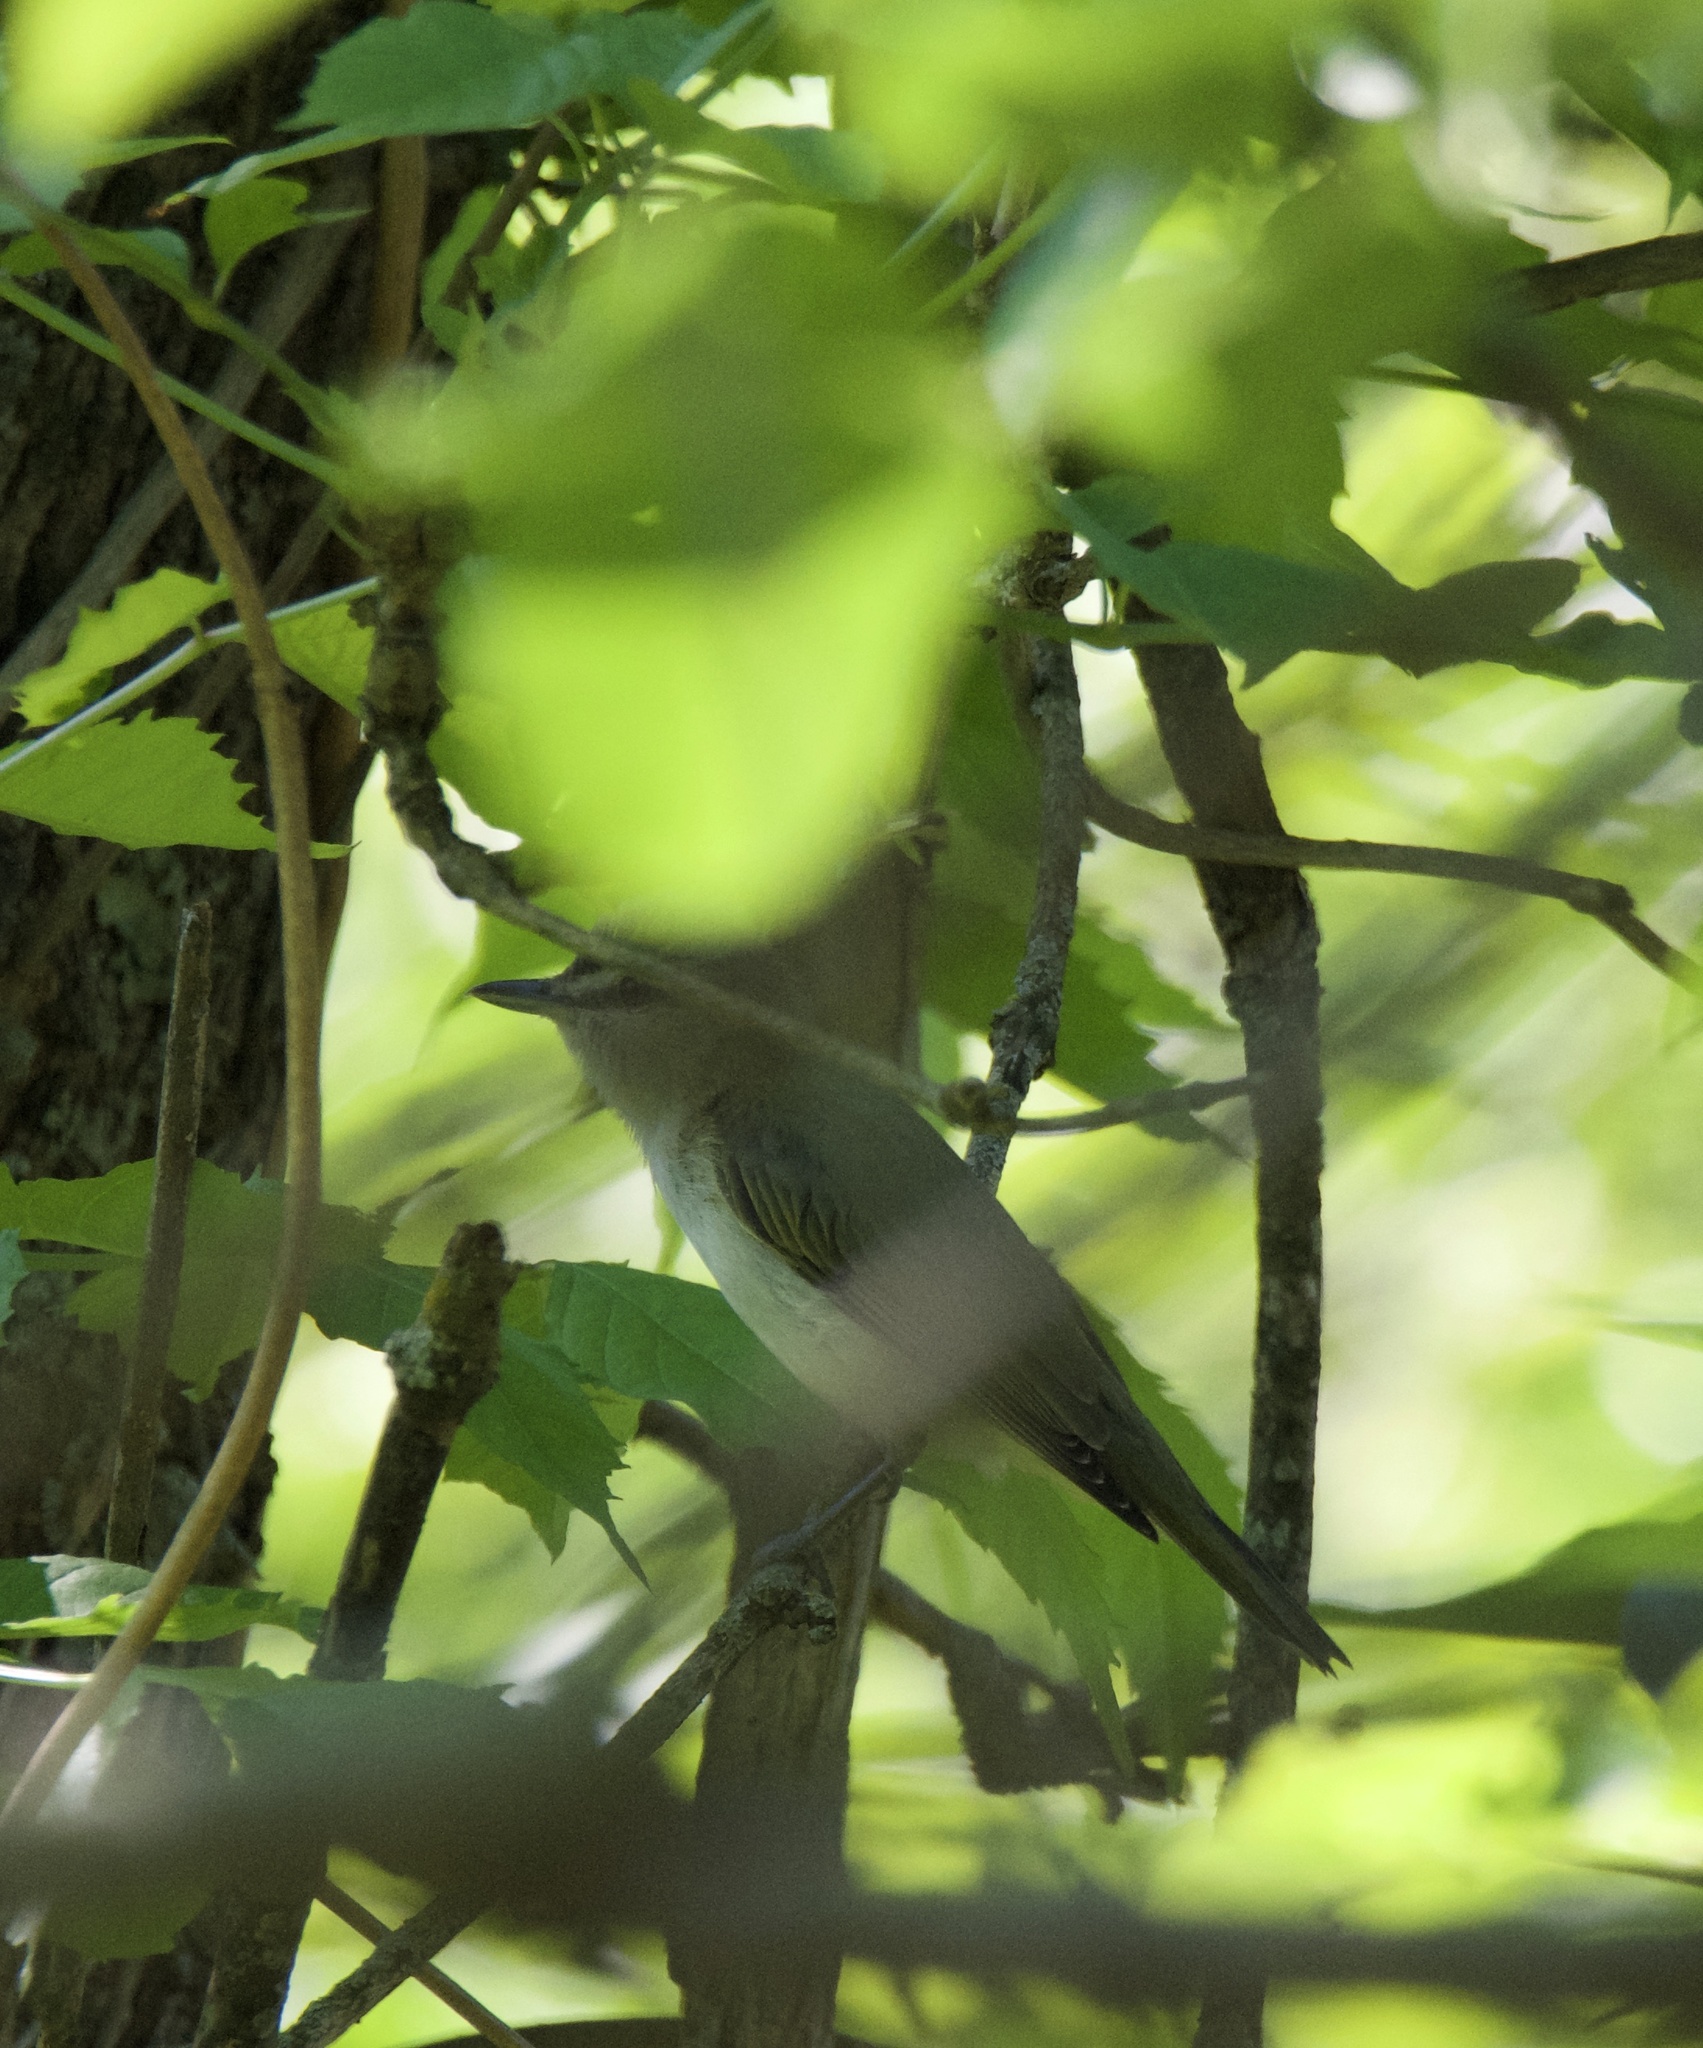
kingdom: Animalia
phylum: Chordata
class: Aves
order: Passeriformes
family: Vireonidae
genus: Vireo
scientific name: Vireo olivaceus
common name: Red-eyed vireo
